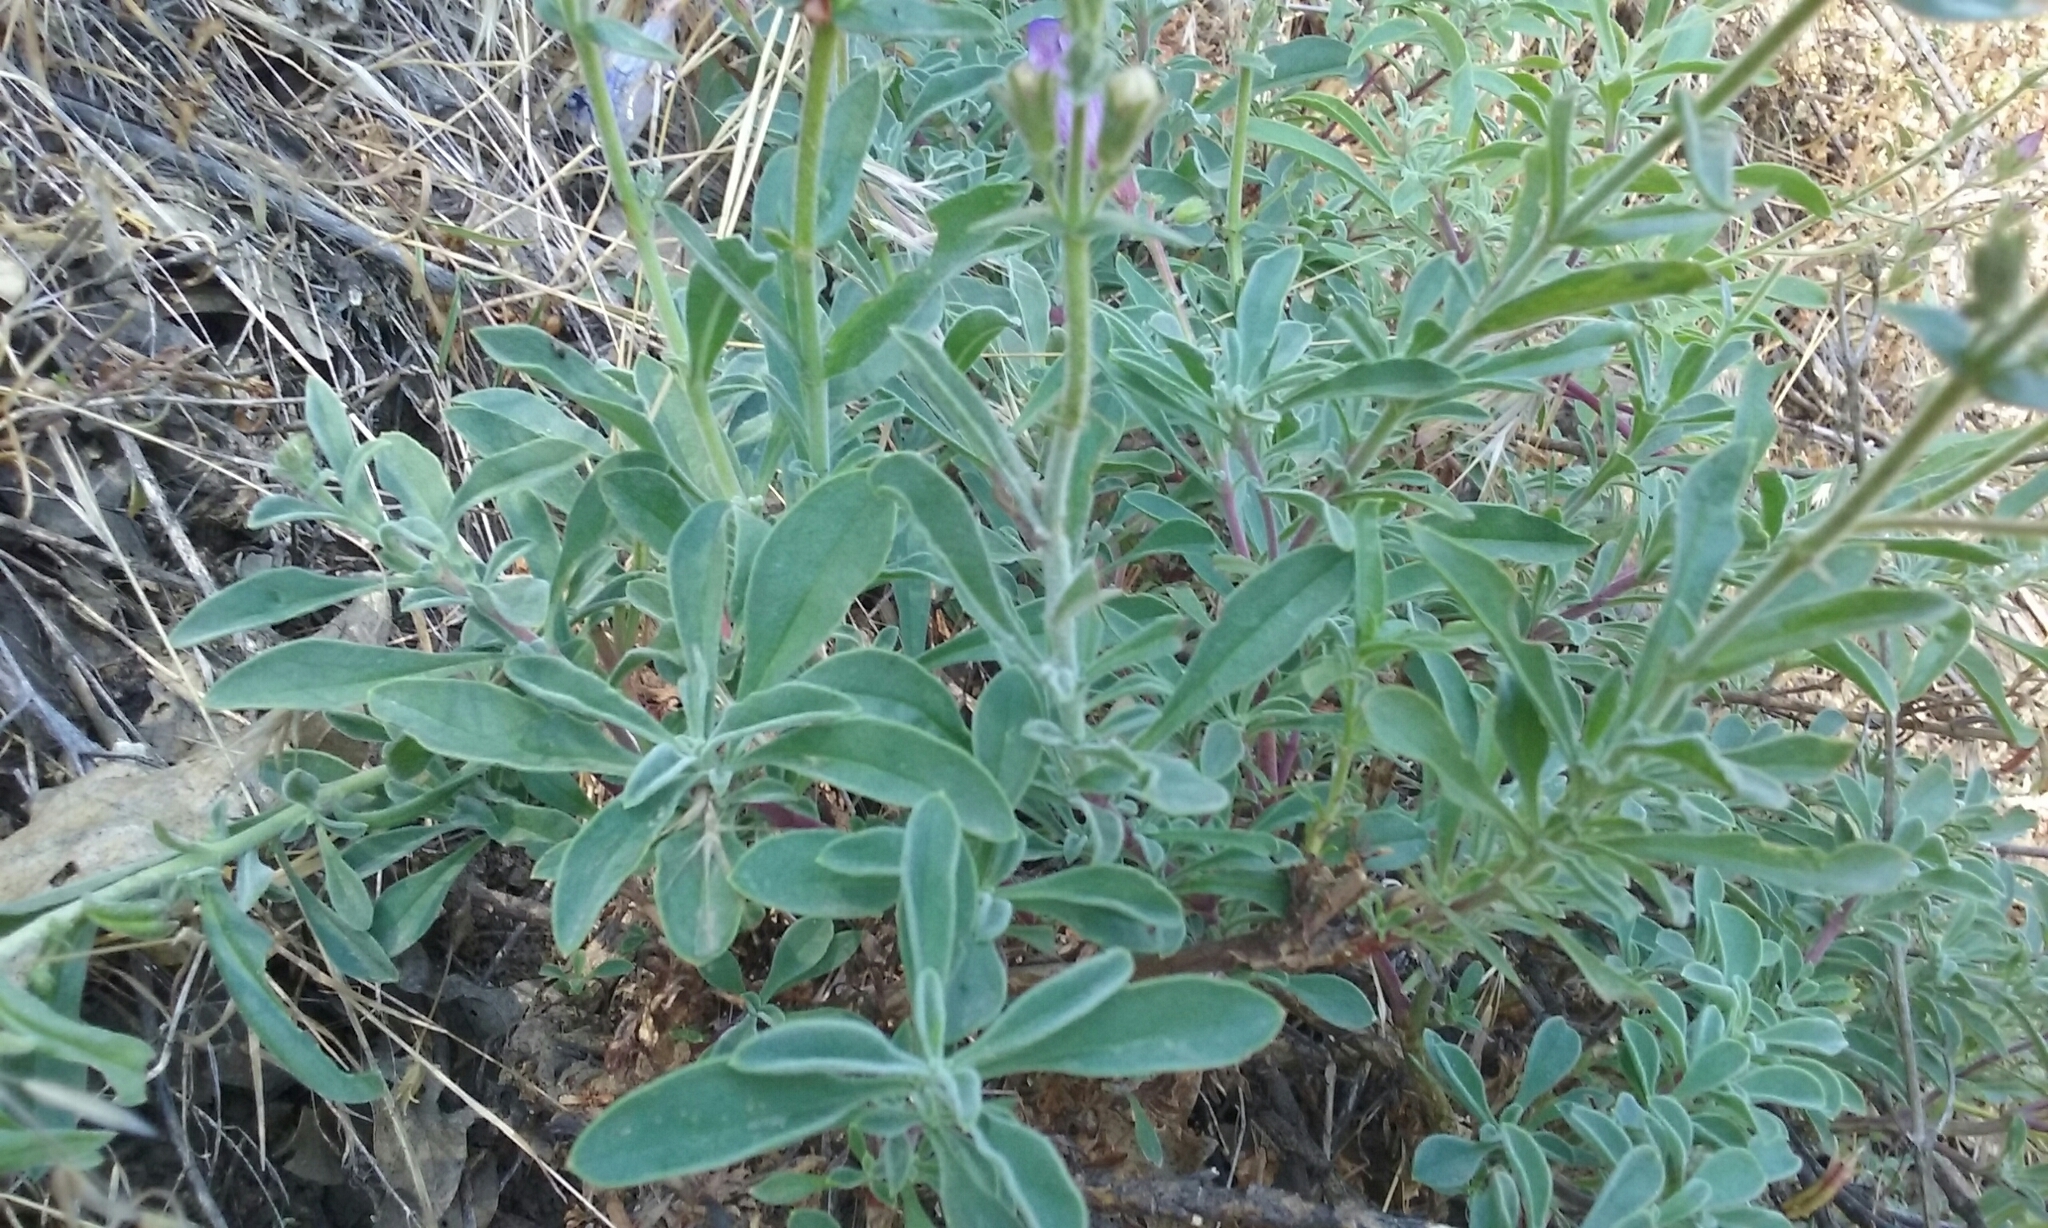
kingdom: Plantae
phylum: Tracheophyta
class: Magnoliopsida
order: Lamiales
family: Plantaginaceae
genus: Penstemon
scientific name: Penstemon laetus
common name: Gay penstemon
